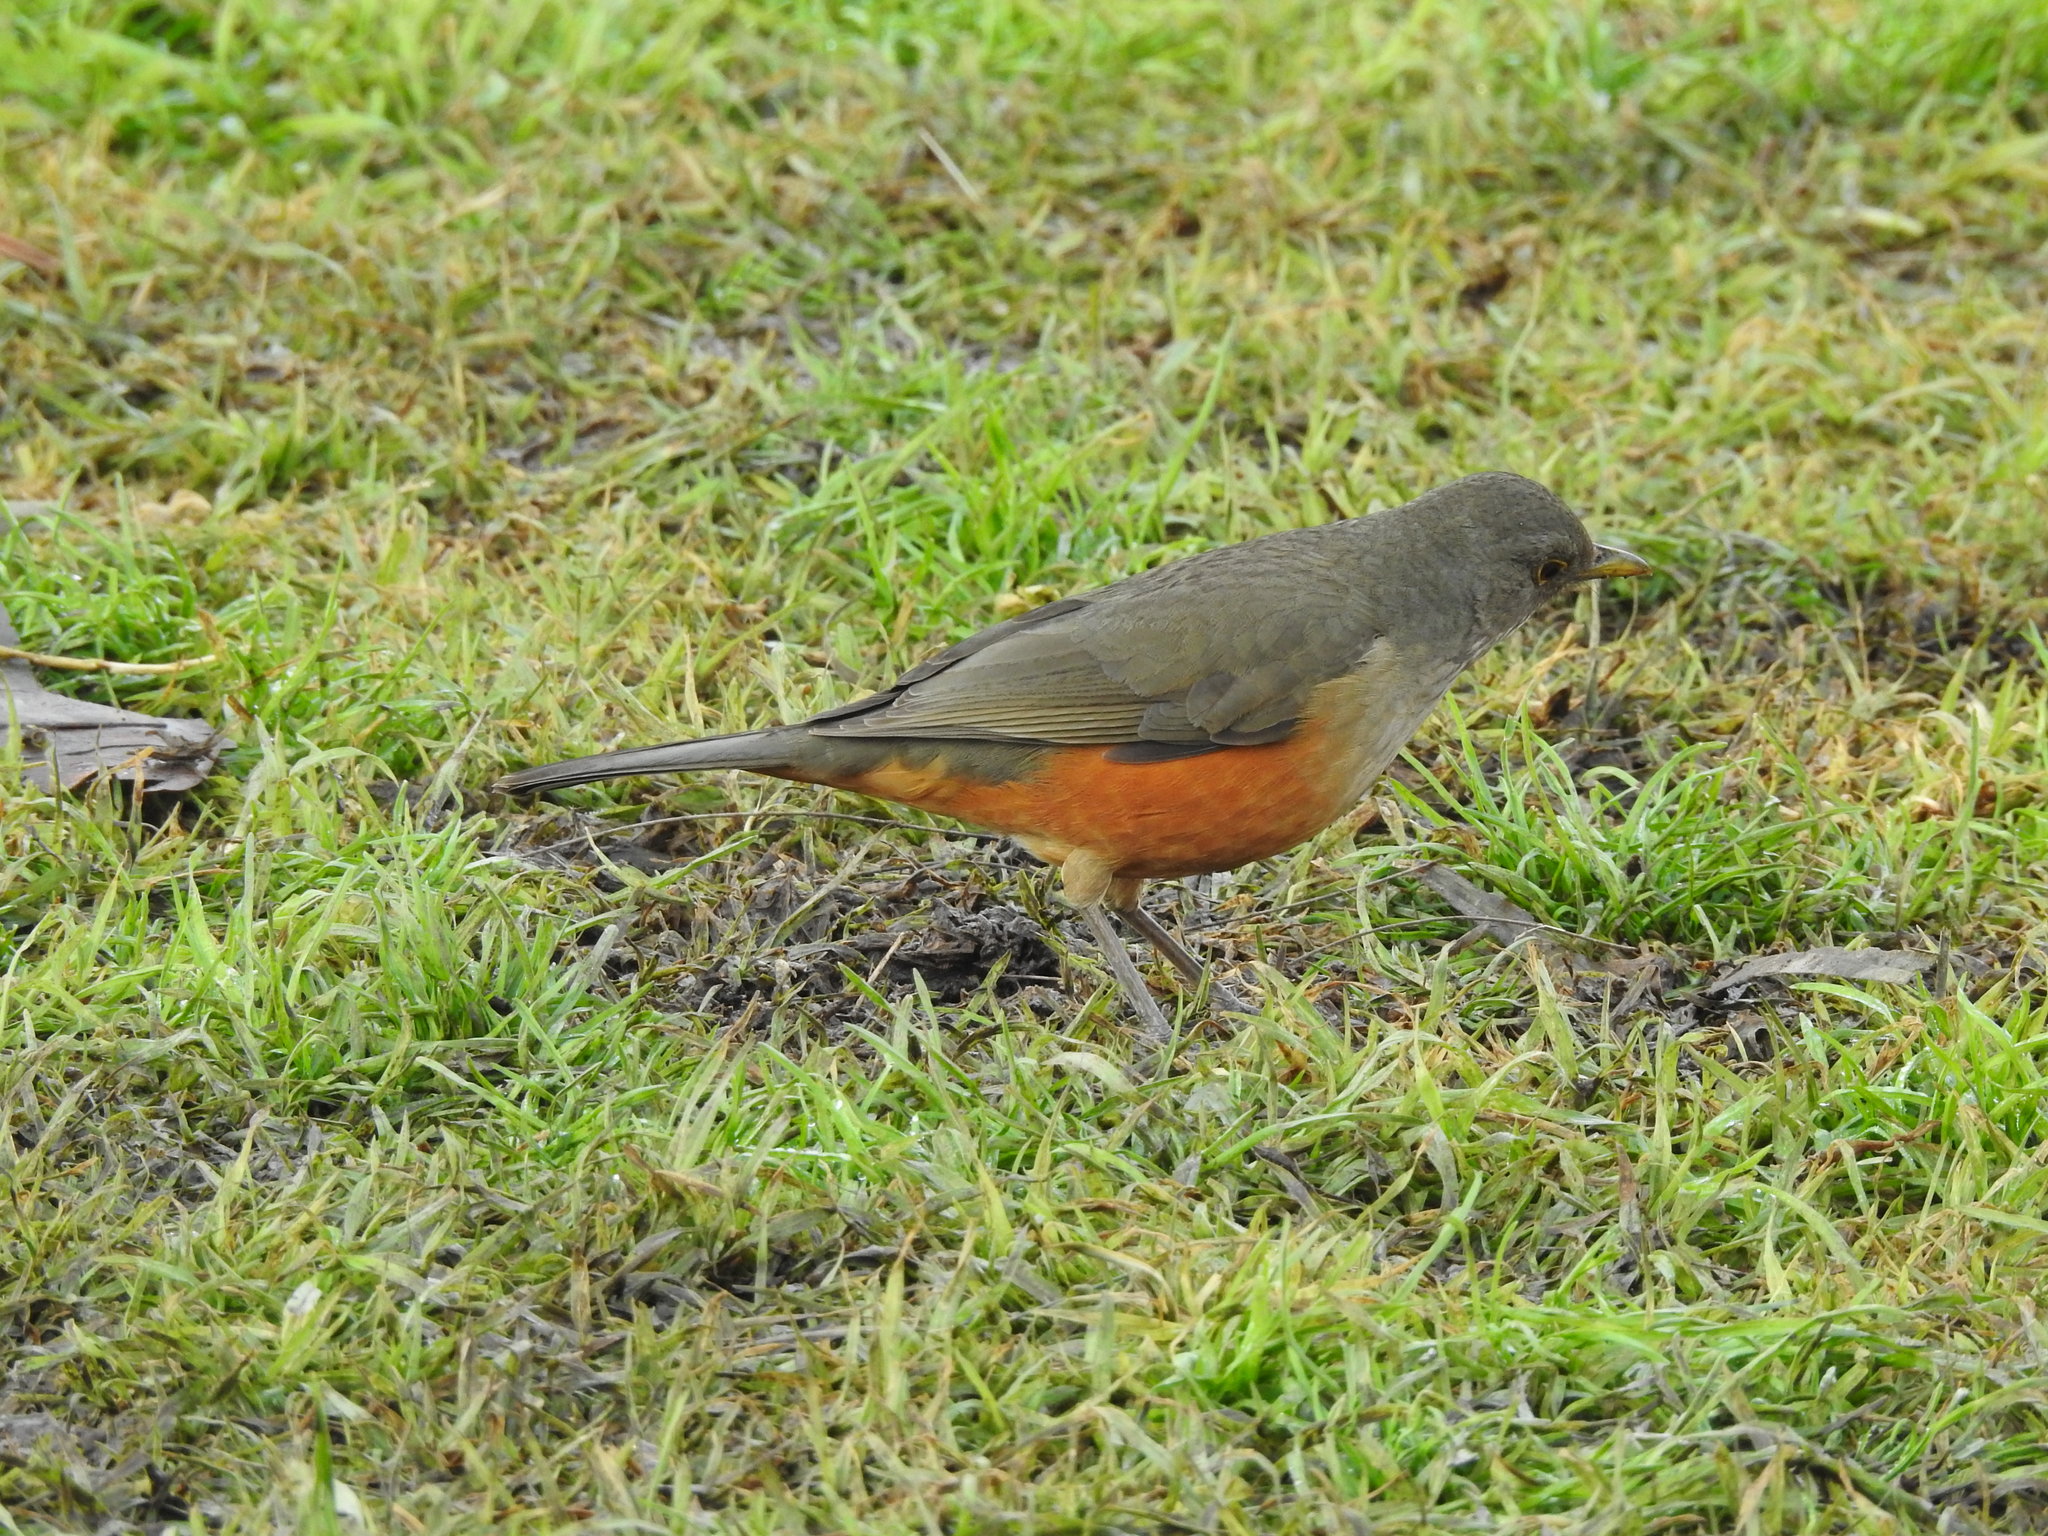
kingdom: Animalia
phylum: Chordata
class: Aves
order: Passeriformes
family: Turdidae
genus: Turdus
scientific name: Turdus rufiventris
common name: Rufous-bellied thrush
